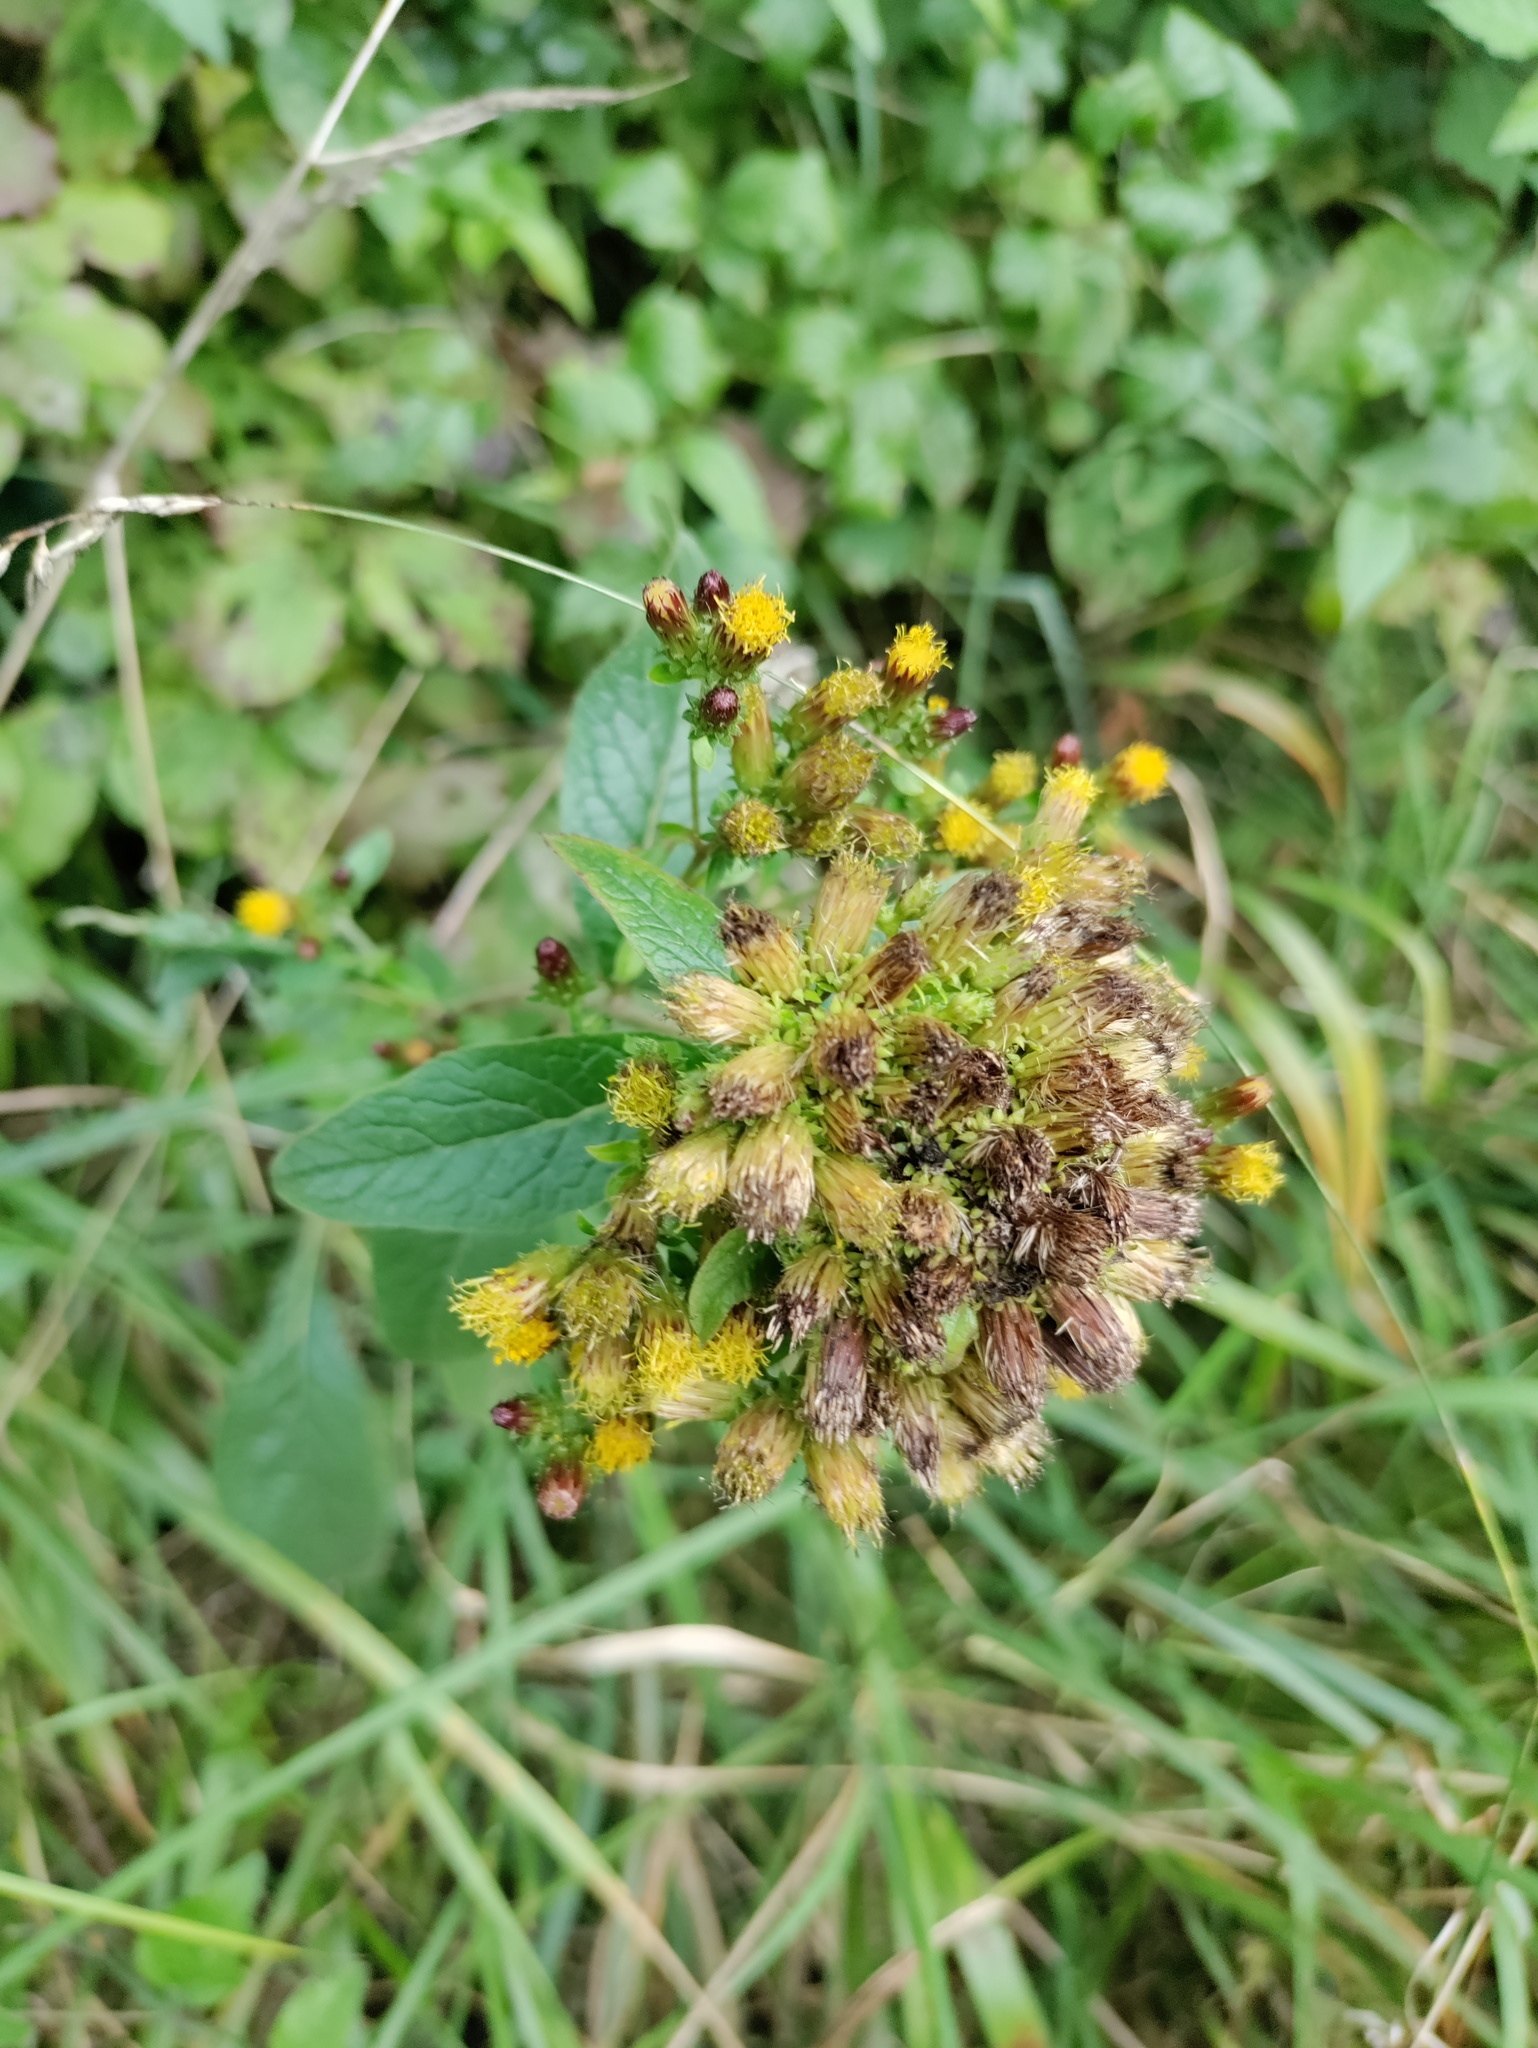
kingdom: Plantae
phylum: Tracheophyta
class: Magnoliopsida
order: Asterales
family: Asteraceae
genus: Pentanema
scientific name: Pentanema squarrosum
